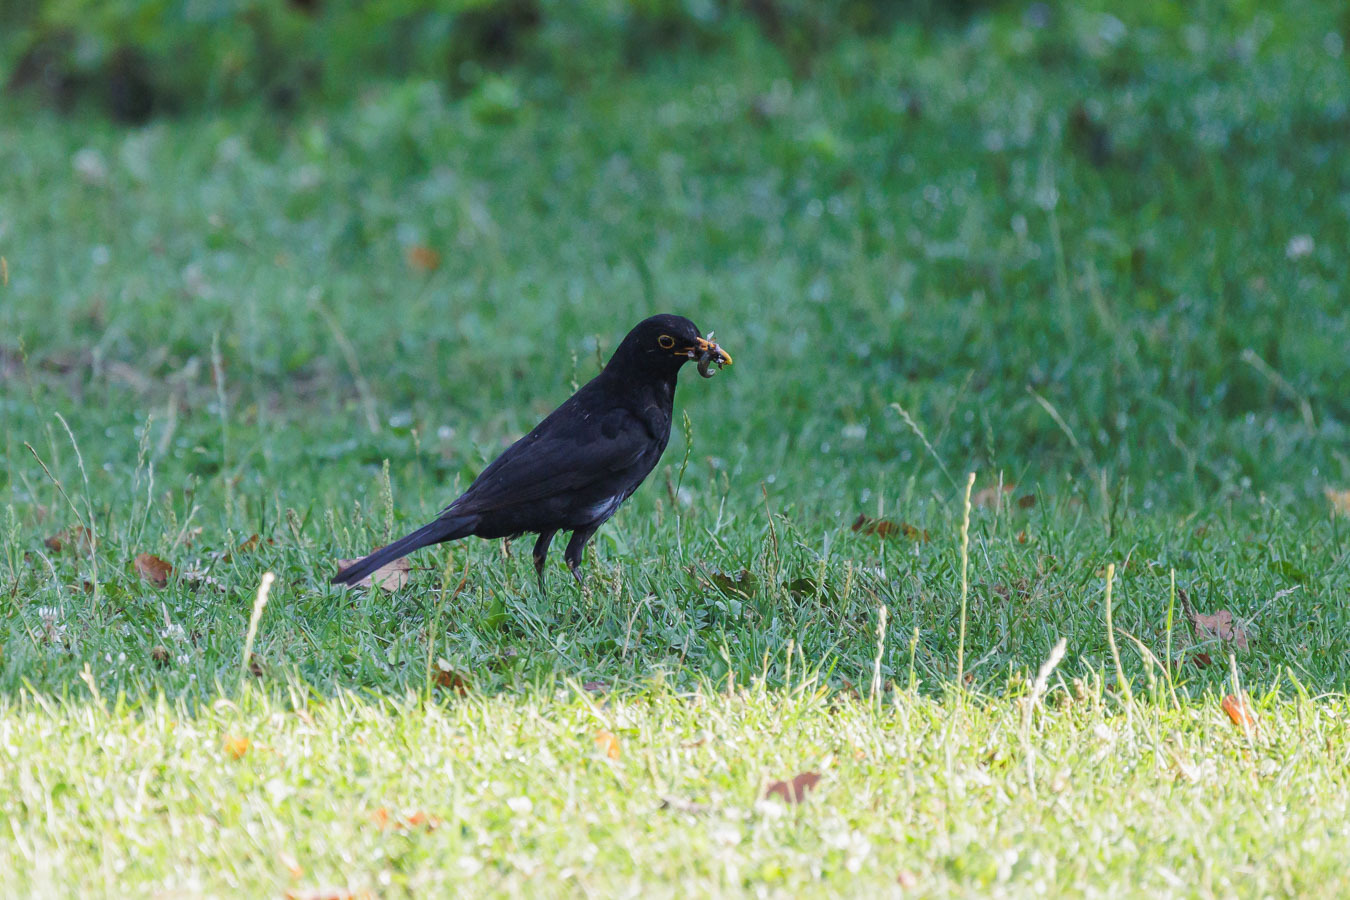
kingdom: Animalia
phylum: Chordata
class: Aves
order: Passeriformes
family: Turdidae
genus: Turdus
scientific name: Turdus merula
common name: Common blackbird
